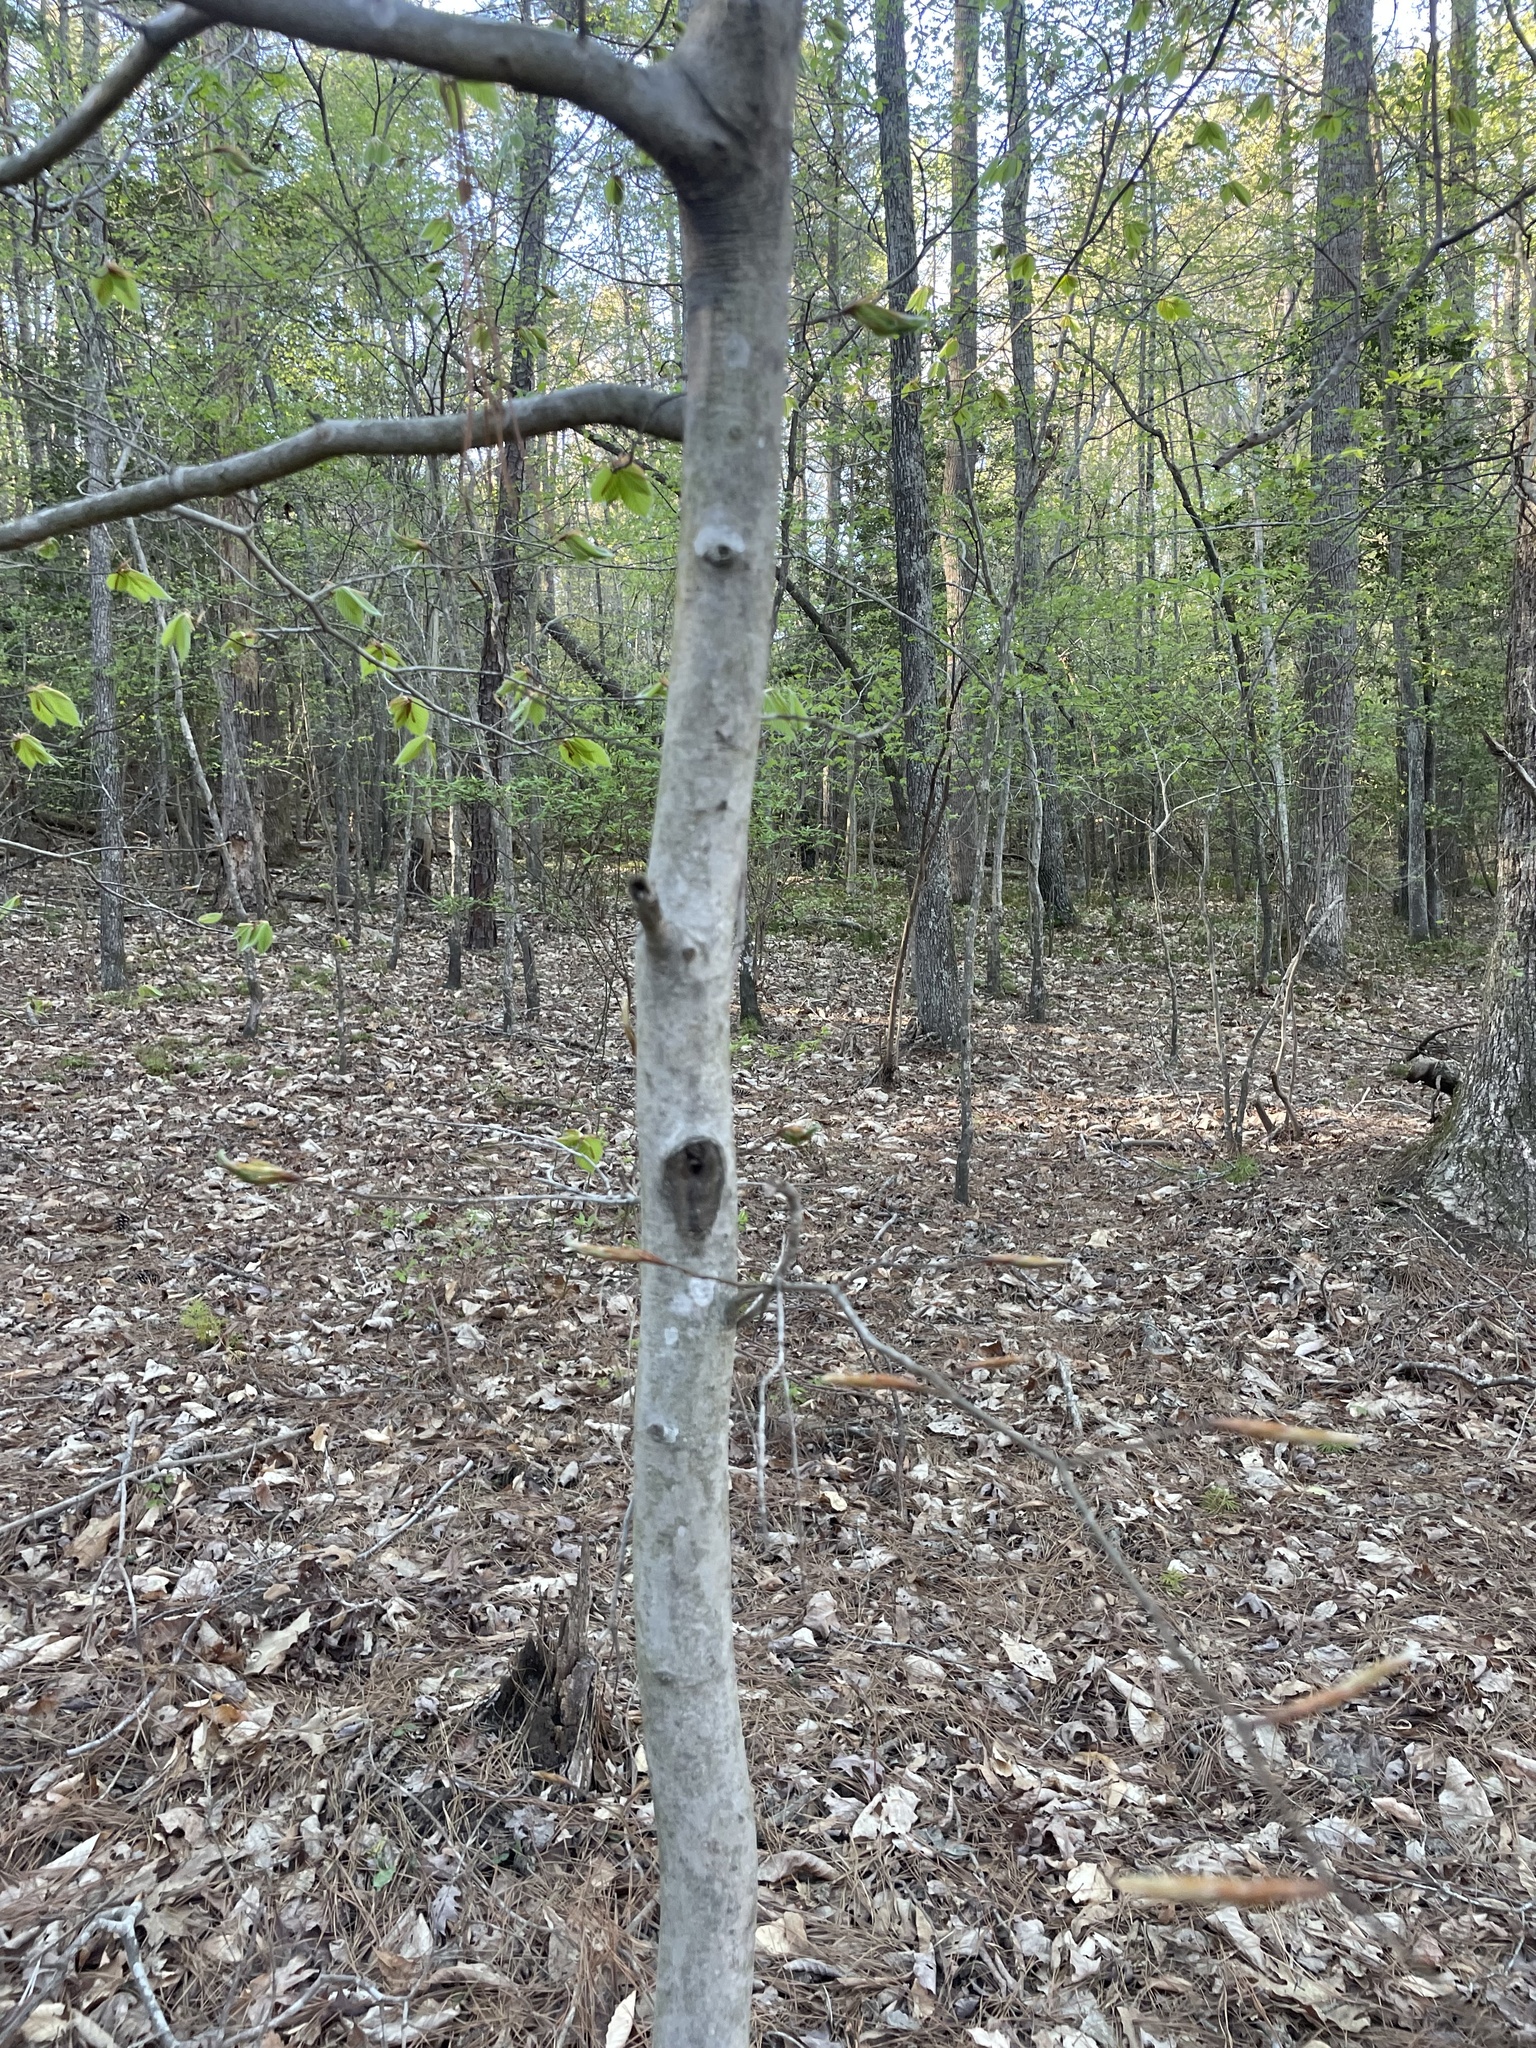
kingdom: Plantae
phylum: Tracheophyta
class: Magnoliopsida
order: Fagales
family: Fagaceae
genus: Fagus
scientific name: Fagus grandifolia
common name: American beech
